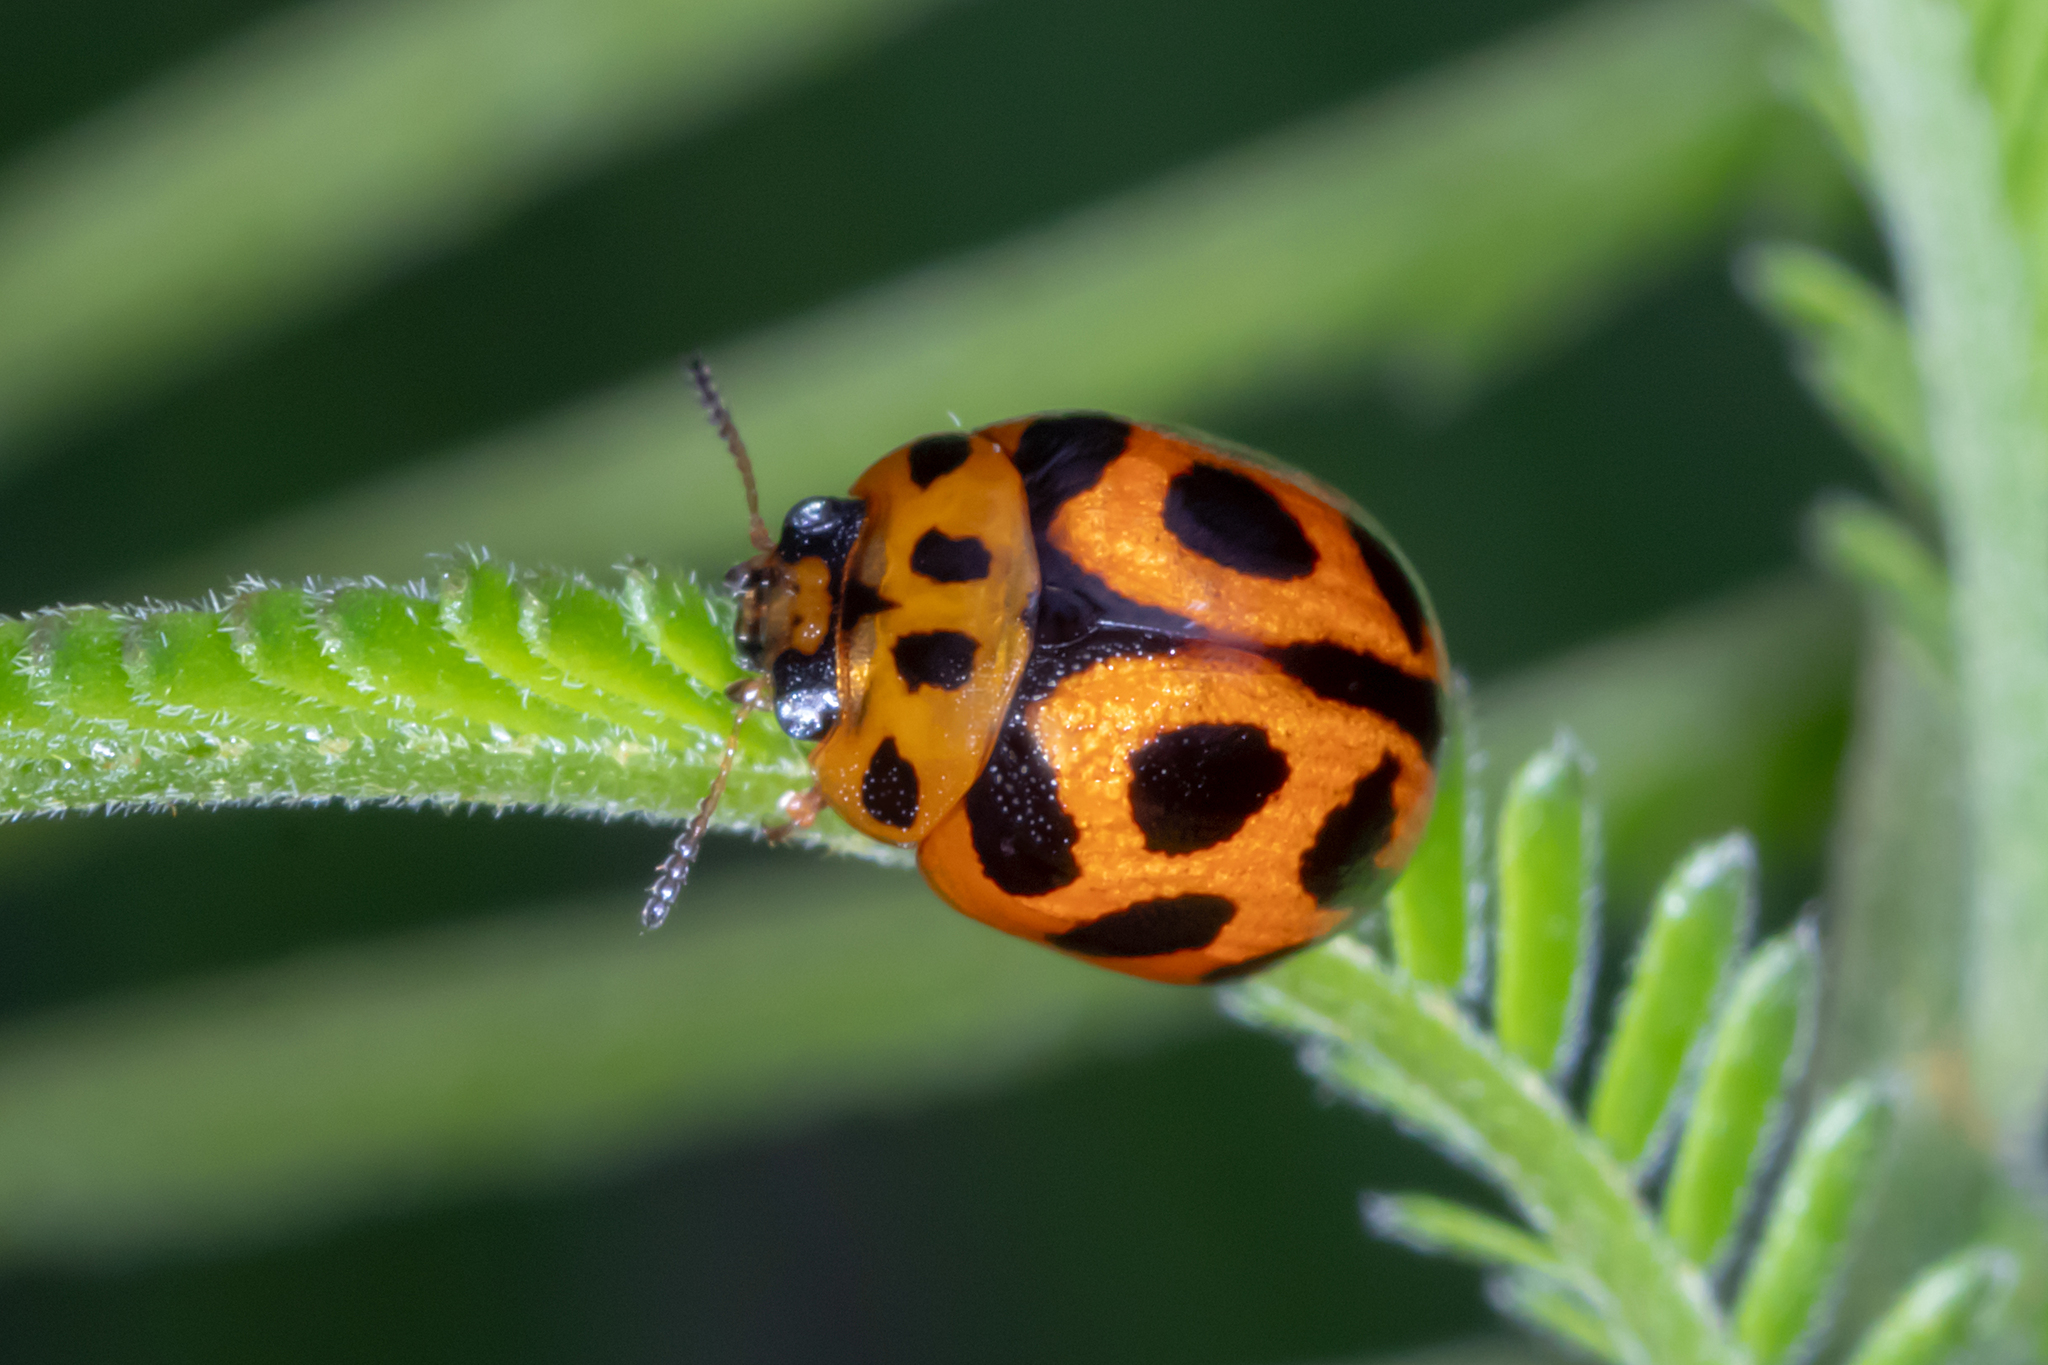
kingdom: Animalia
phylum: Arthropoda
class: Insecta
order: Coleoptera
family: Chrysomelidae
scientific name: Chrysomelidae
